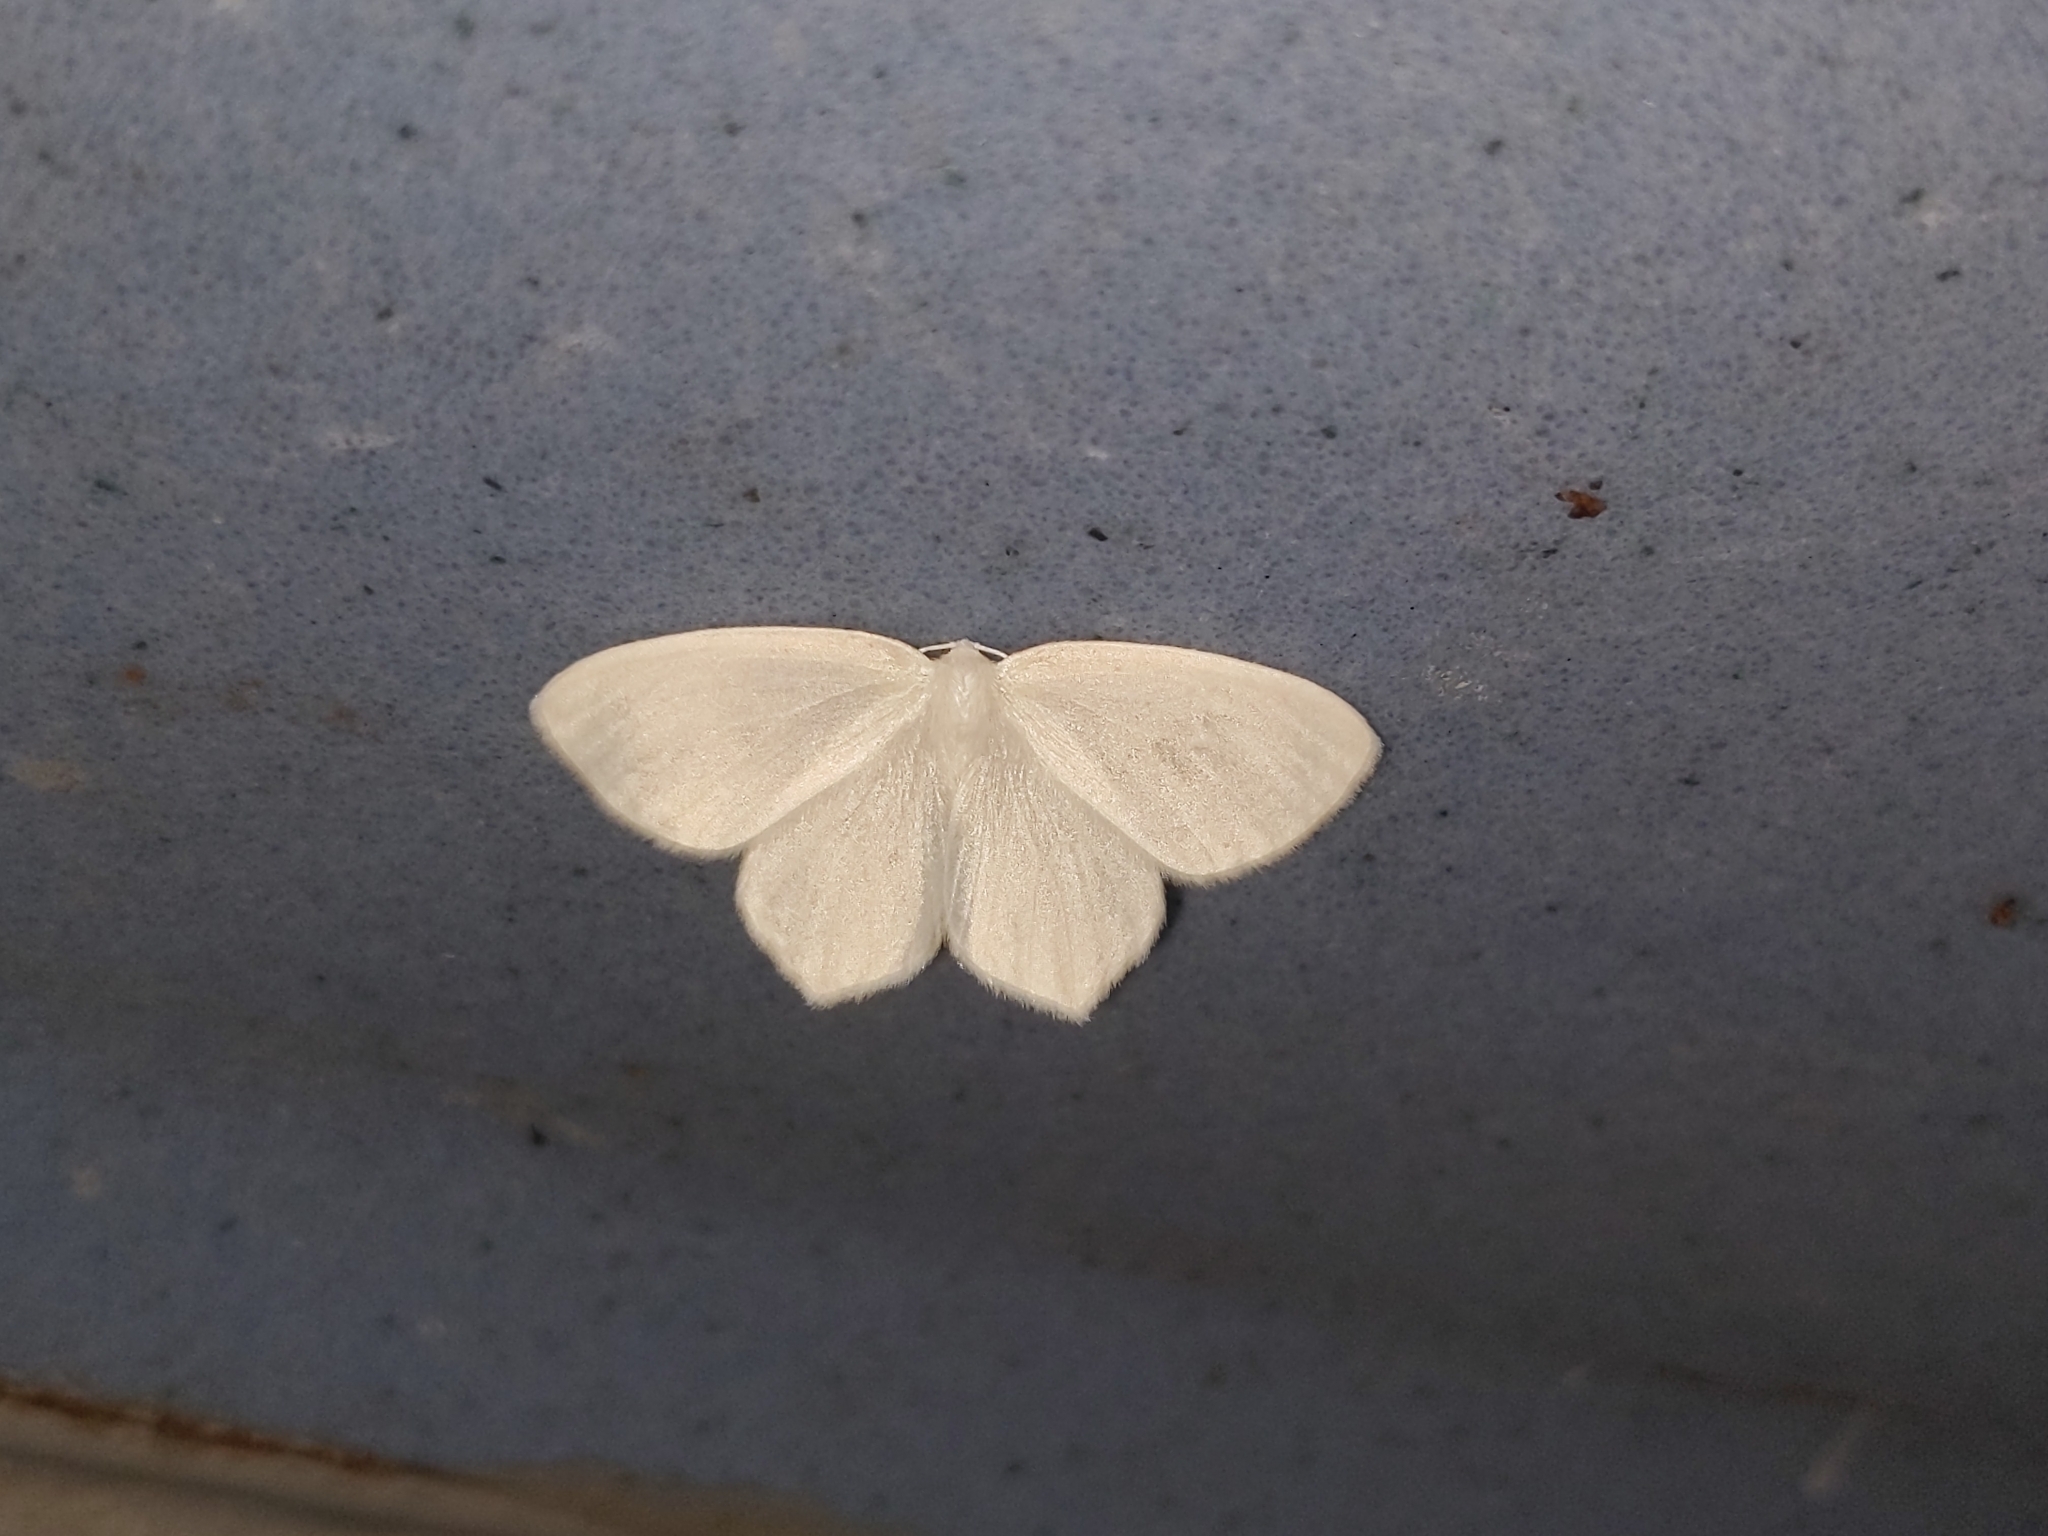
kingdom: Animalia
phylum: Arthropoda
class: Insecta
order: Lepidoptera
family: Geometridae
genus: Eugonobapta
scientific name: Eugonobapta nivosaria
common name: Snowy geometer
